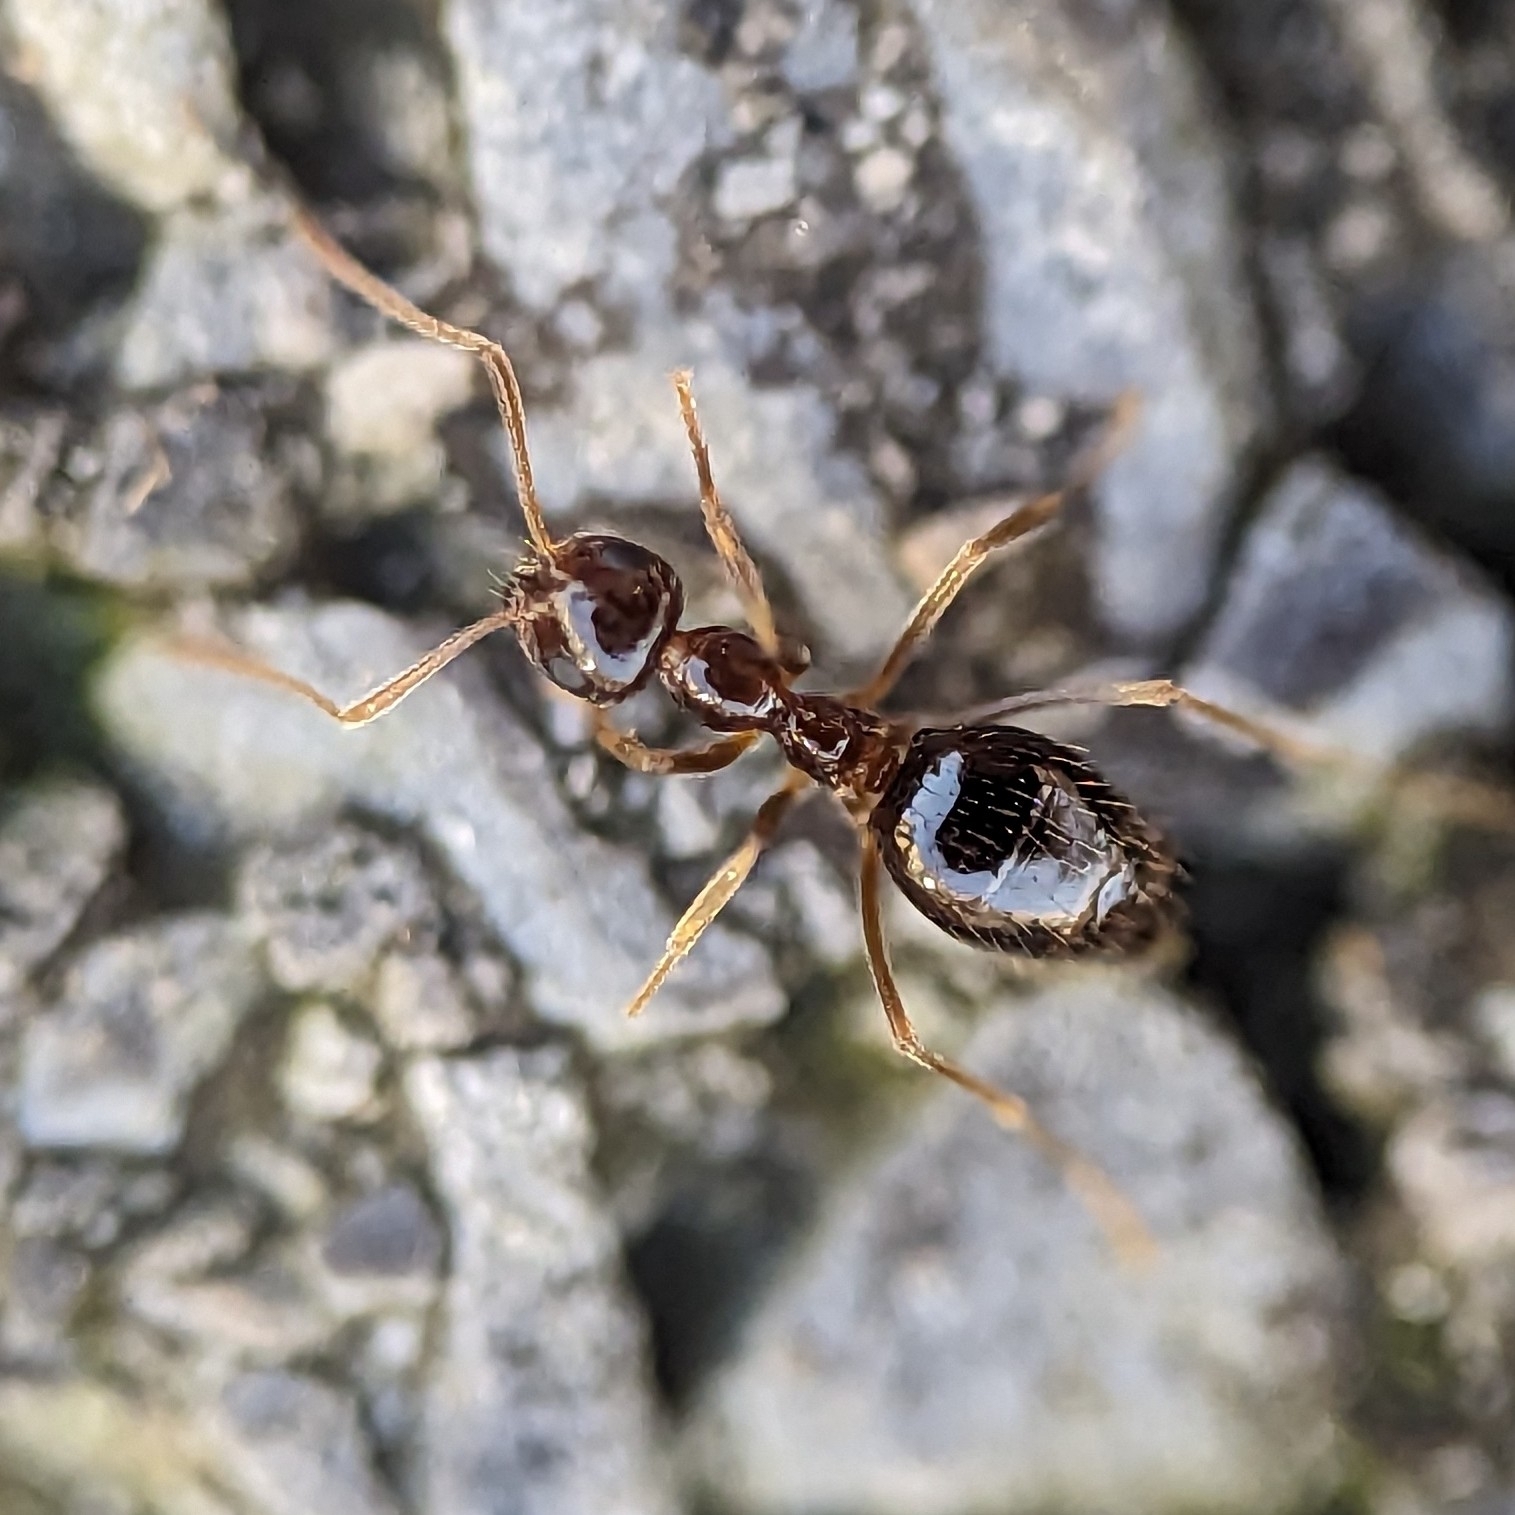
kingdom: Animalia
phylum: Arthropoda
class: Insecta
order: Hymenoptera
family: Formicidae
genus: Prenolepis
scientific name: Prenolepis imparis
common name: Small honey ant
